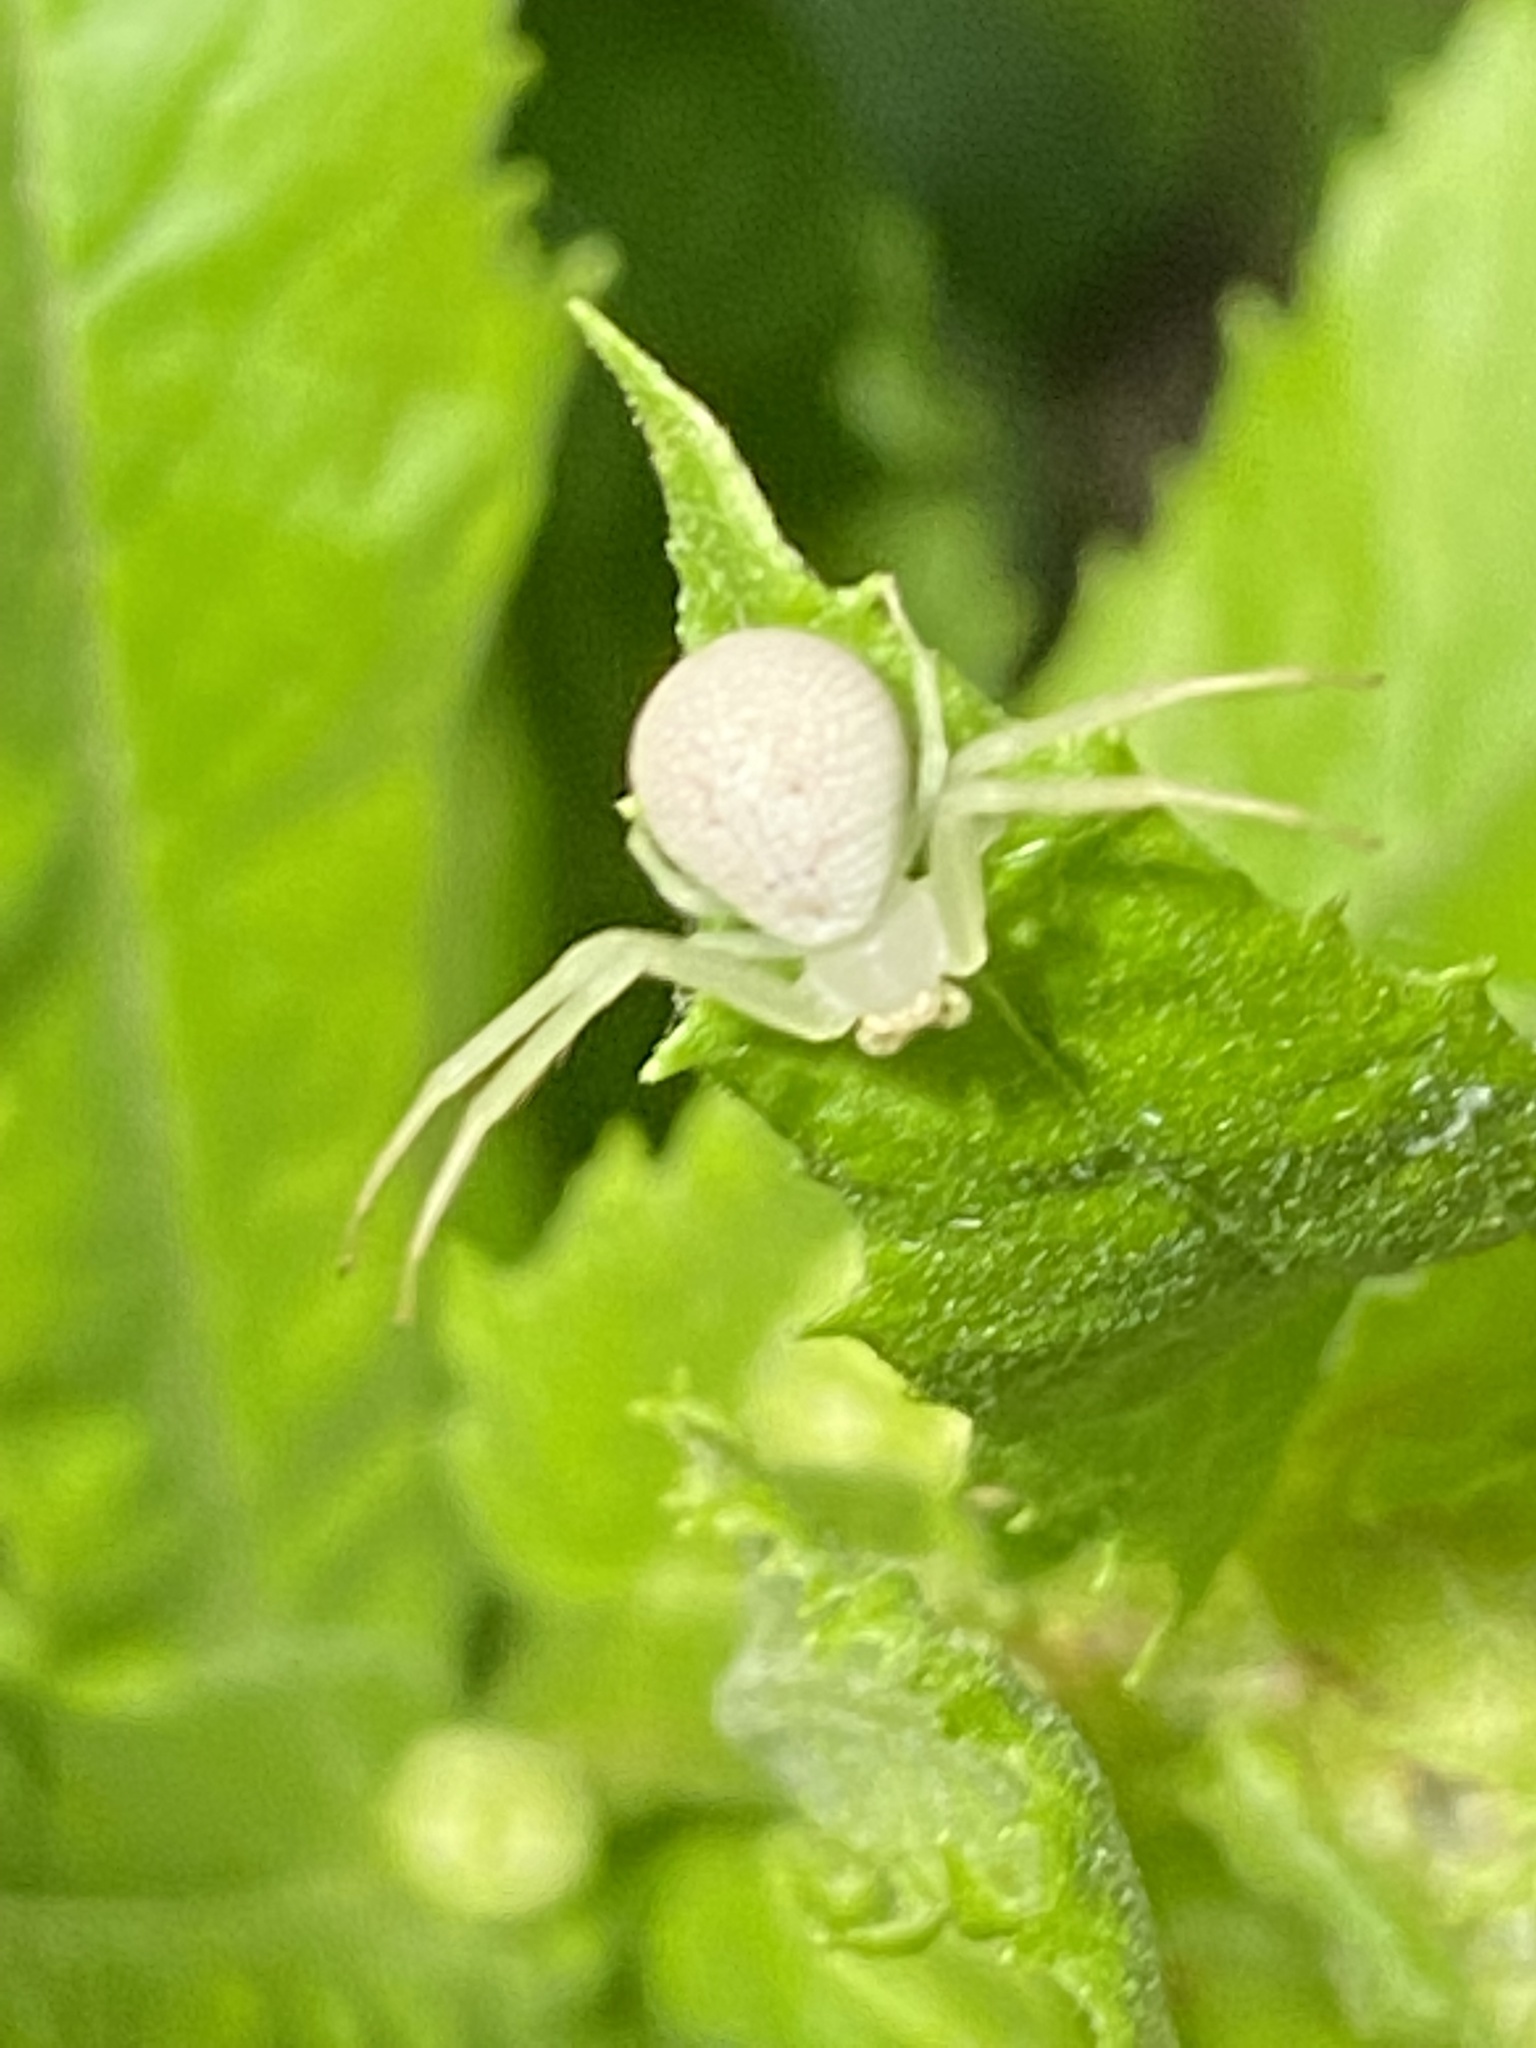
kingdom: Animalia
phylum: Arthropoda
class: Arachnida
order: Araneae
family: Thomisidae
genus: Misumessus
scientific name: Misumessus oblongus
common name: American green crab spider
